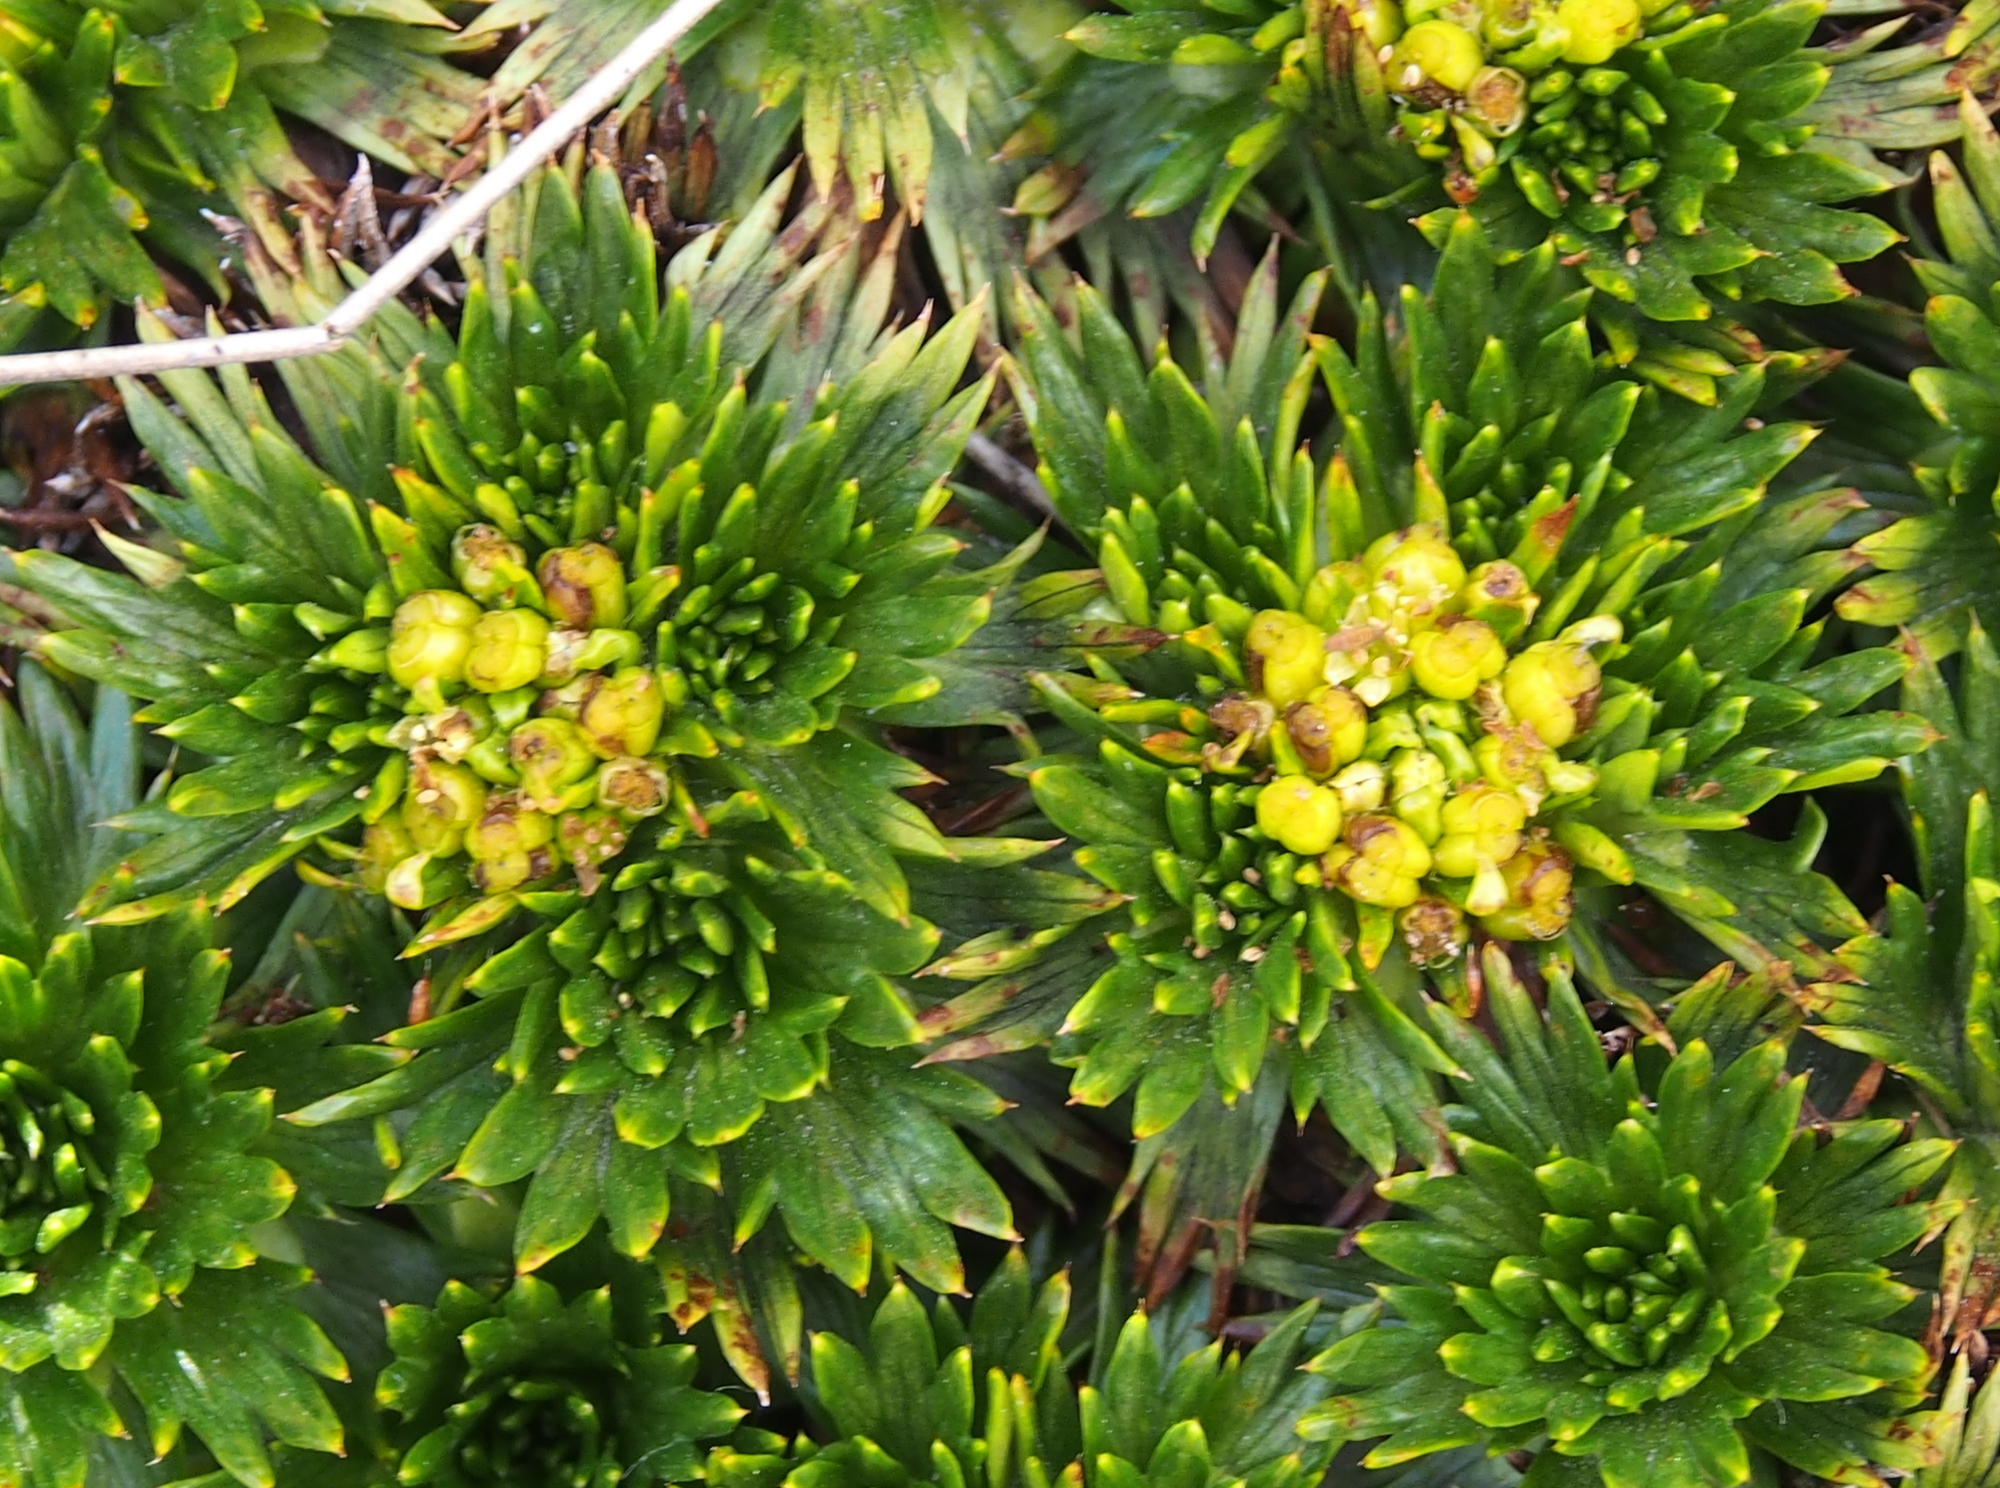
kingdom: Plantae
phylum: Tracheophyta
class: Magnoliopsida
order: Apiales
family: Apiaceae
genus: Azorella
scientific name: Azorella pedunculata
